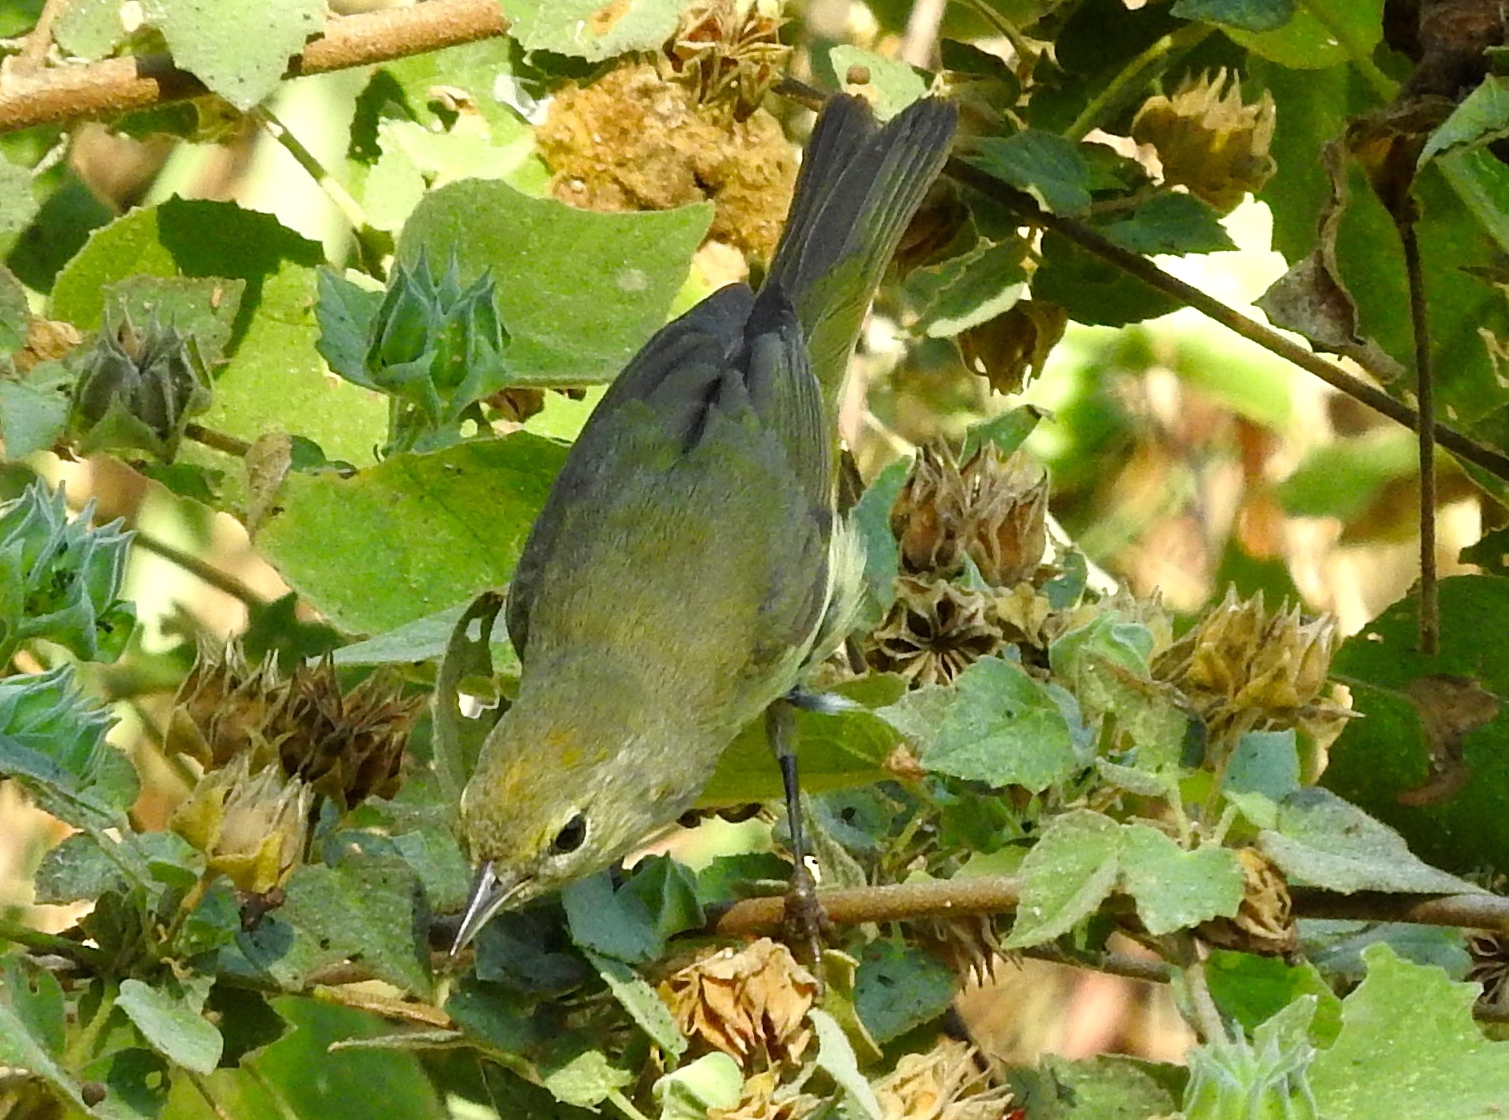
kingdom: Animalia
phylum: Chordata
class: Aves
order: Passeriformes
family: Parulidae
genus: Leiothlypis
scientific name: Leiothlypis celata
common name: Orange-crowned warbler
